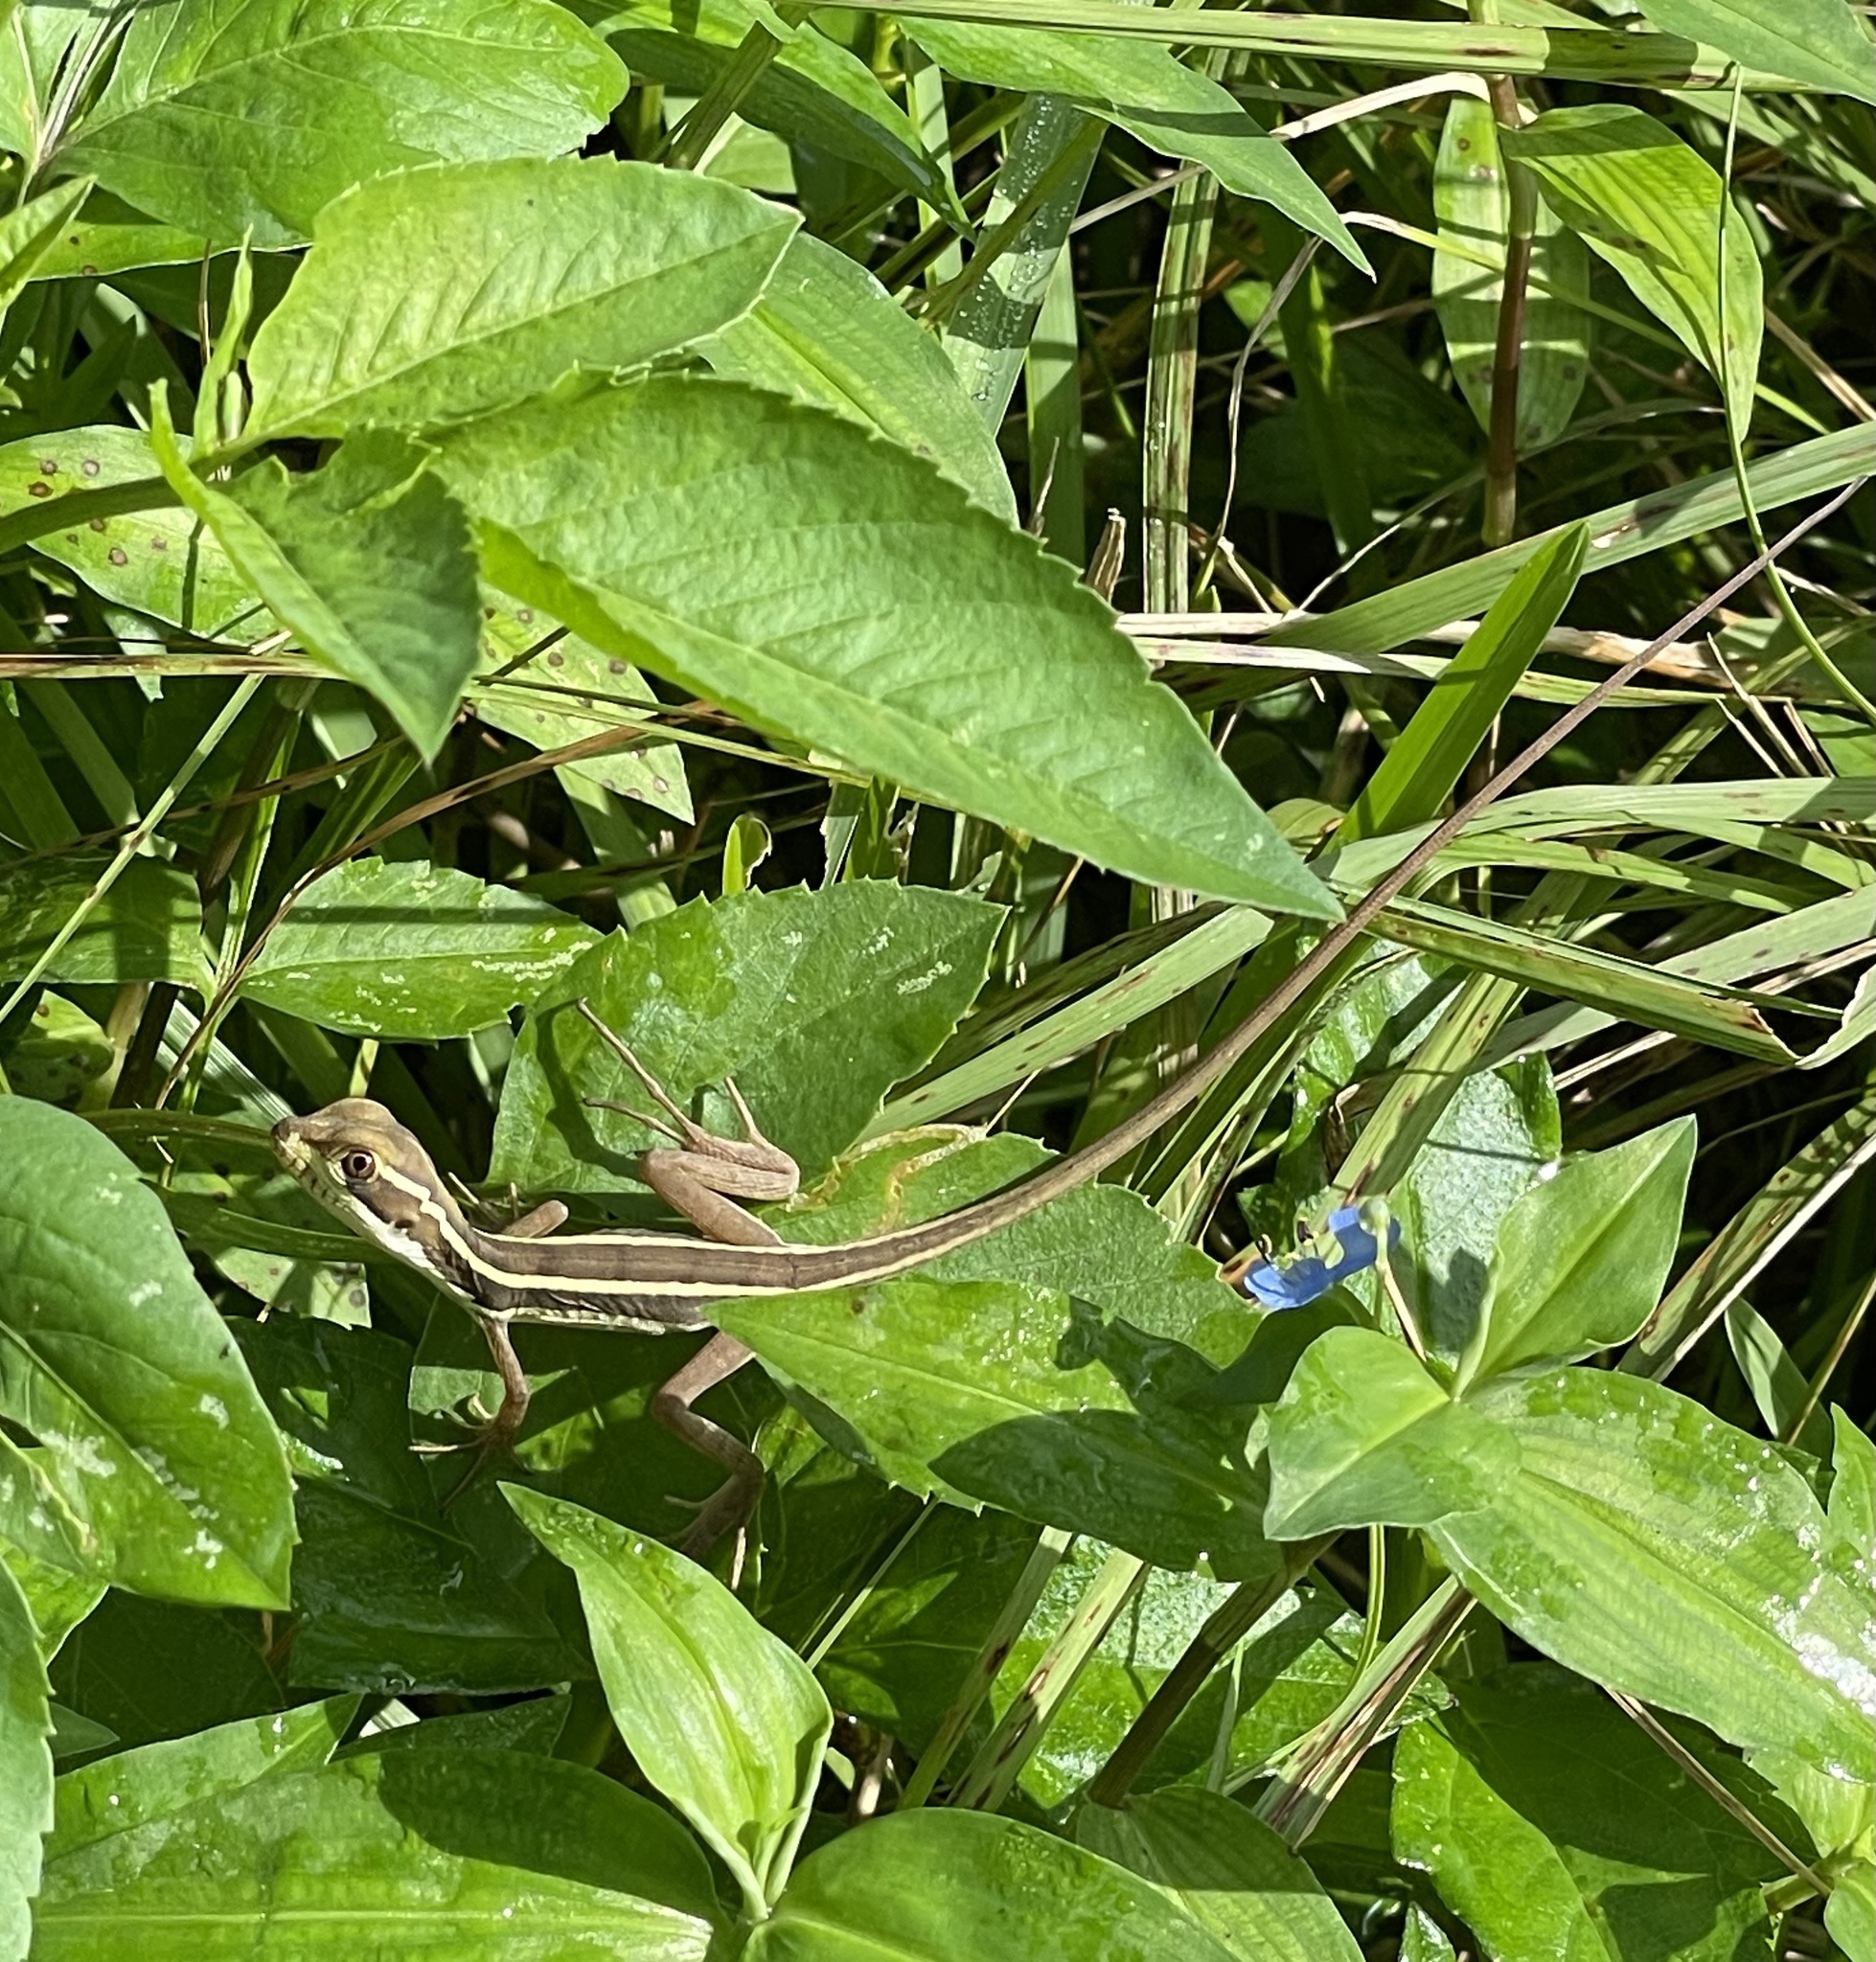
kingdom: Animalia
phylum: Chordata
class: Squamata
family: Corytophanidae
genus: Basiliscus
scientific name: Basiliscus vittatus
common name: Brown basilisk
